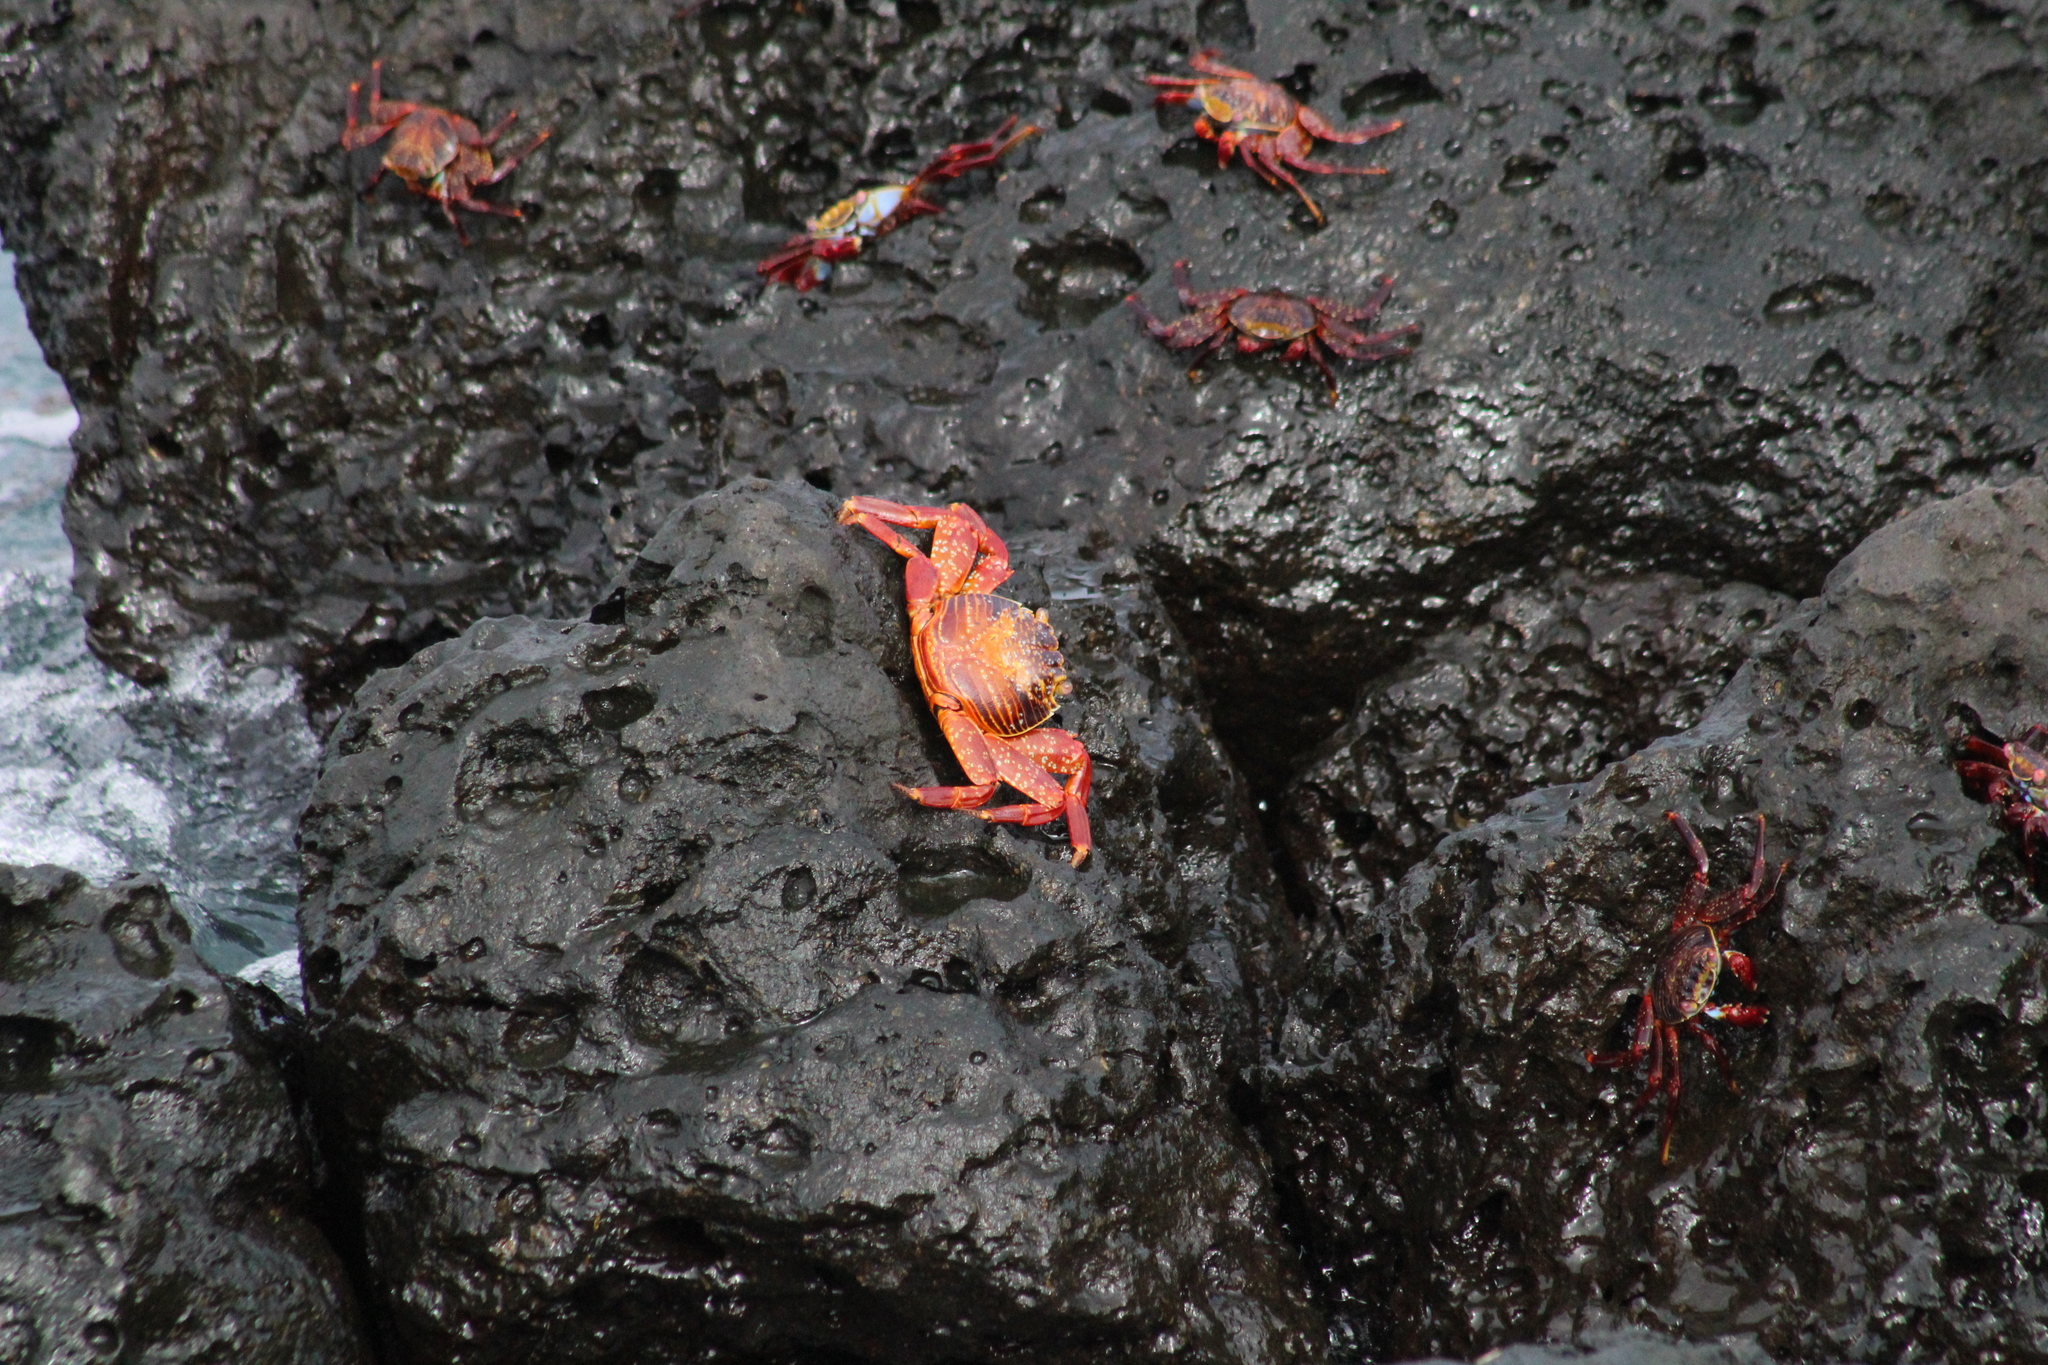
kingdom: Animalia
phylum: Arthropoda
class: Malacostraca
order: Decapoda
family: Grapsidae
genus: Grapsus
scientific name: Grapsus grapsus
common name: Sally lightfoot
